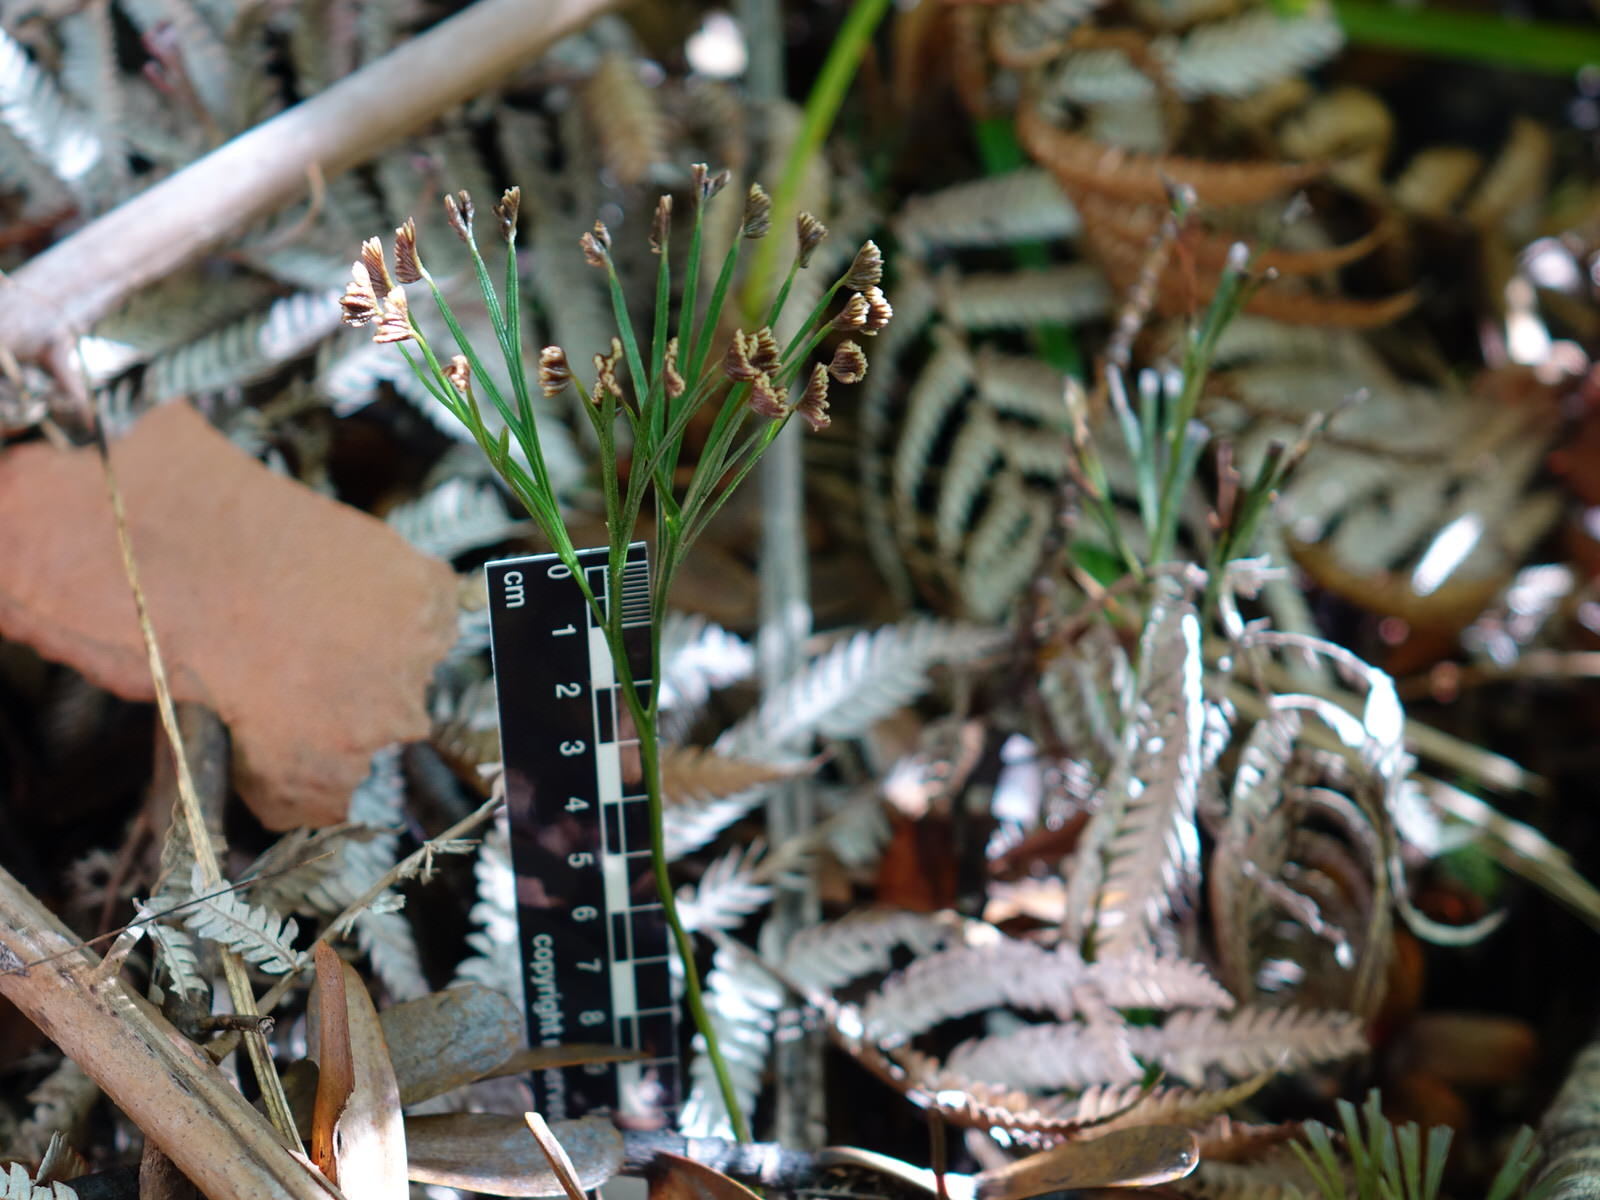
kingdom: Plantae
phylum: Tracheophyta
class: Polypodiopsida
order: Schizaeales
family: Schizaeaceae
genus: Schizaea
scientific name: Schizaea dichotoma
